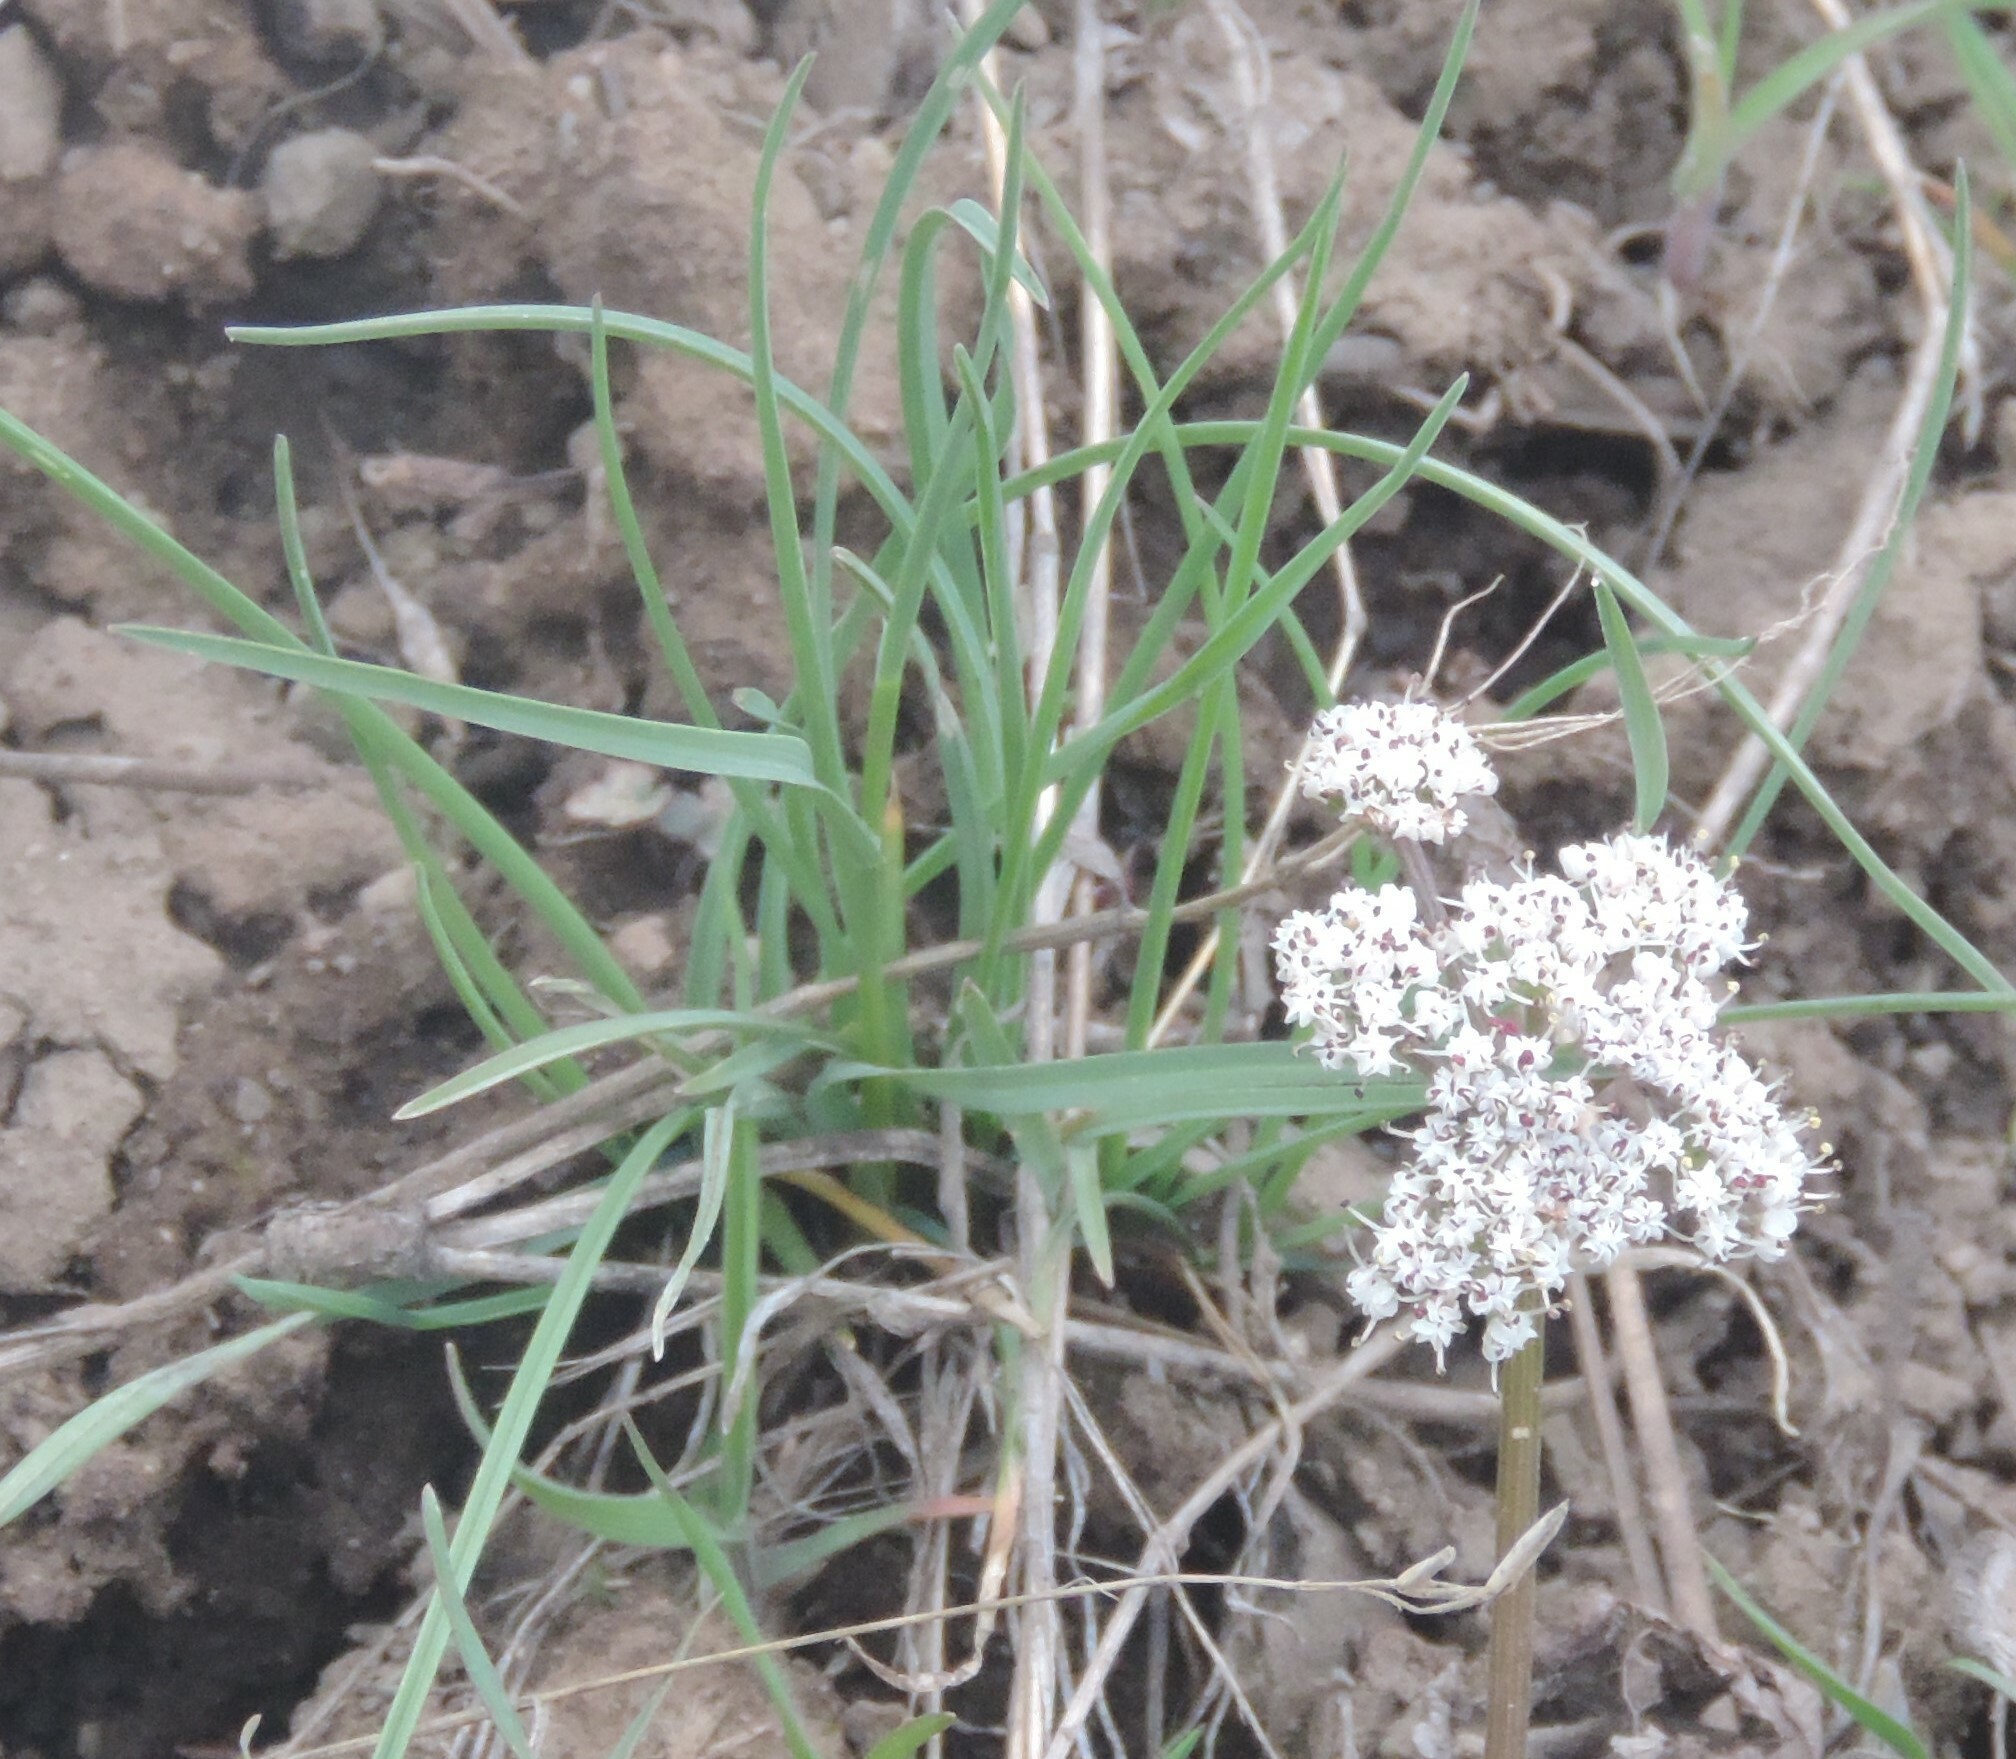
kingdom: Plantae
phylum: Tracheophyta
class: Magnoliopsida
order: Apiales
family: Apiaceae
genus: Lomatium
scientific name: Lomatium geyeri
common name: Geyer's biscuitroot
